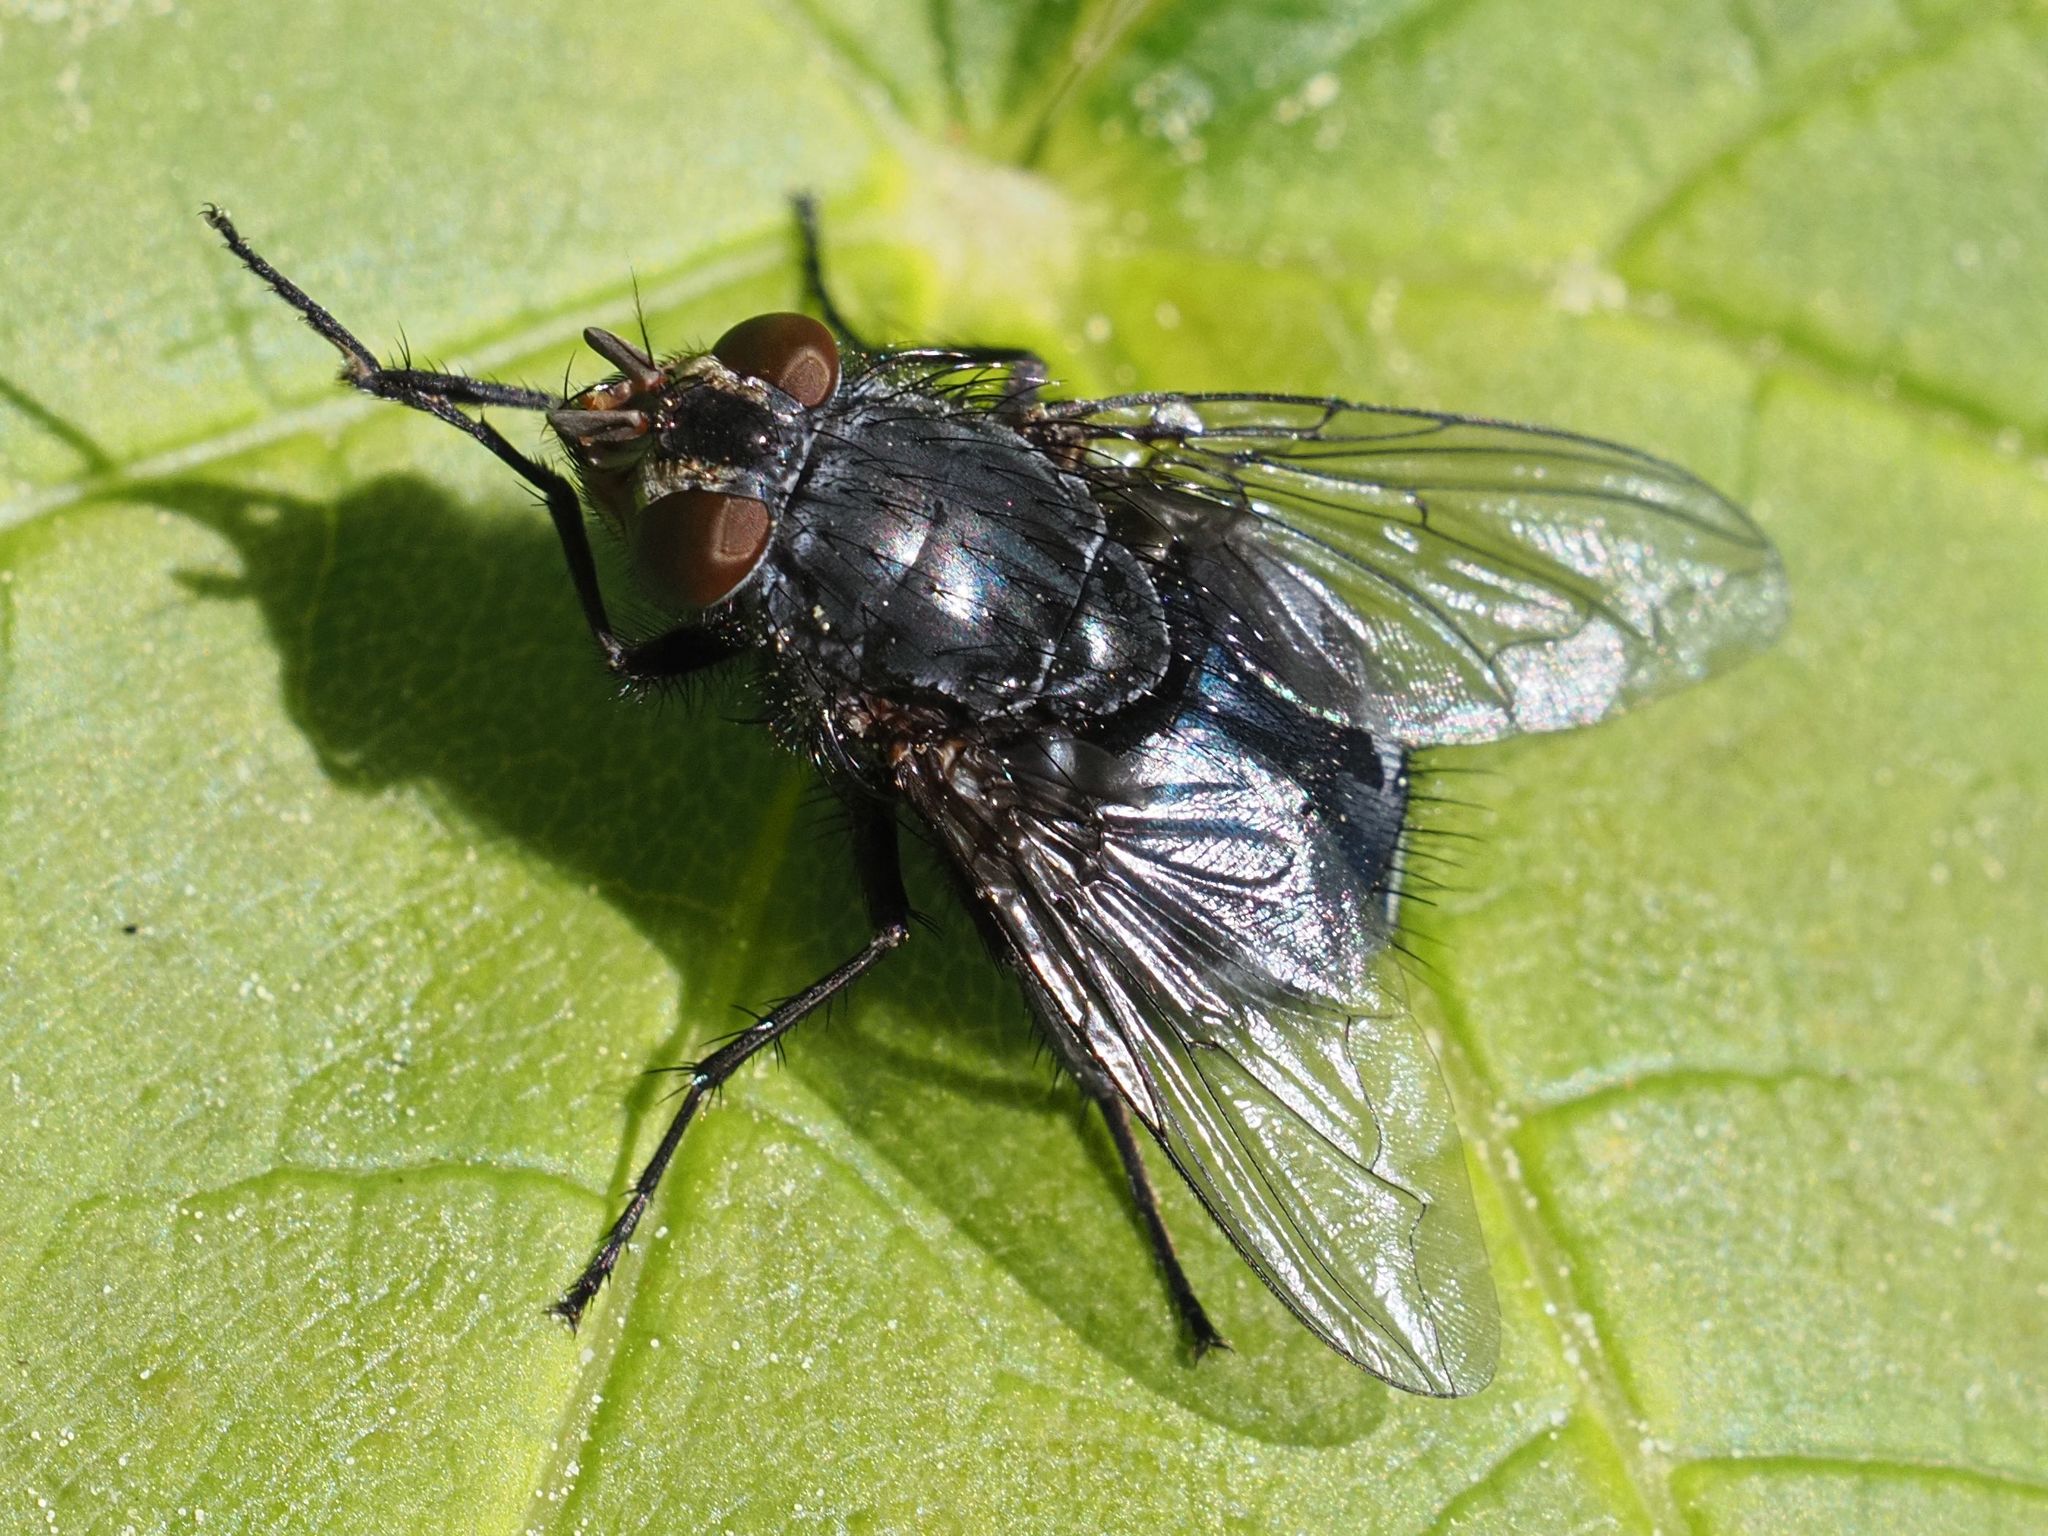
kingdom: Animalia
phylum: Arthropoda
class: Insecta
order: Diptera
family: Calliphoridae
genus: Calliphora
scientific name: Calliphora vicina
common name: Common blow flie
